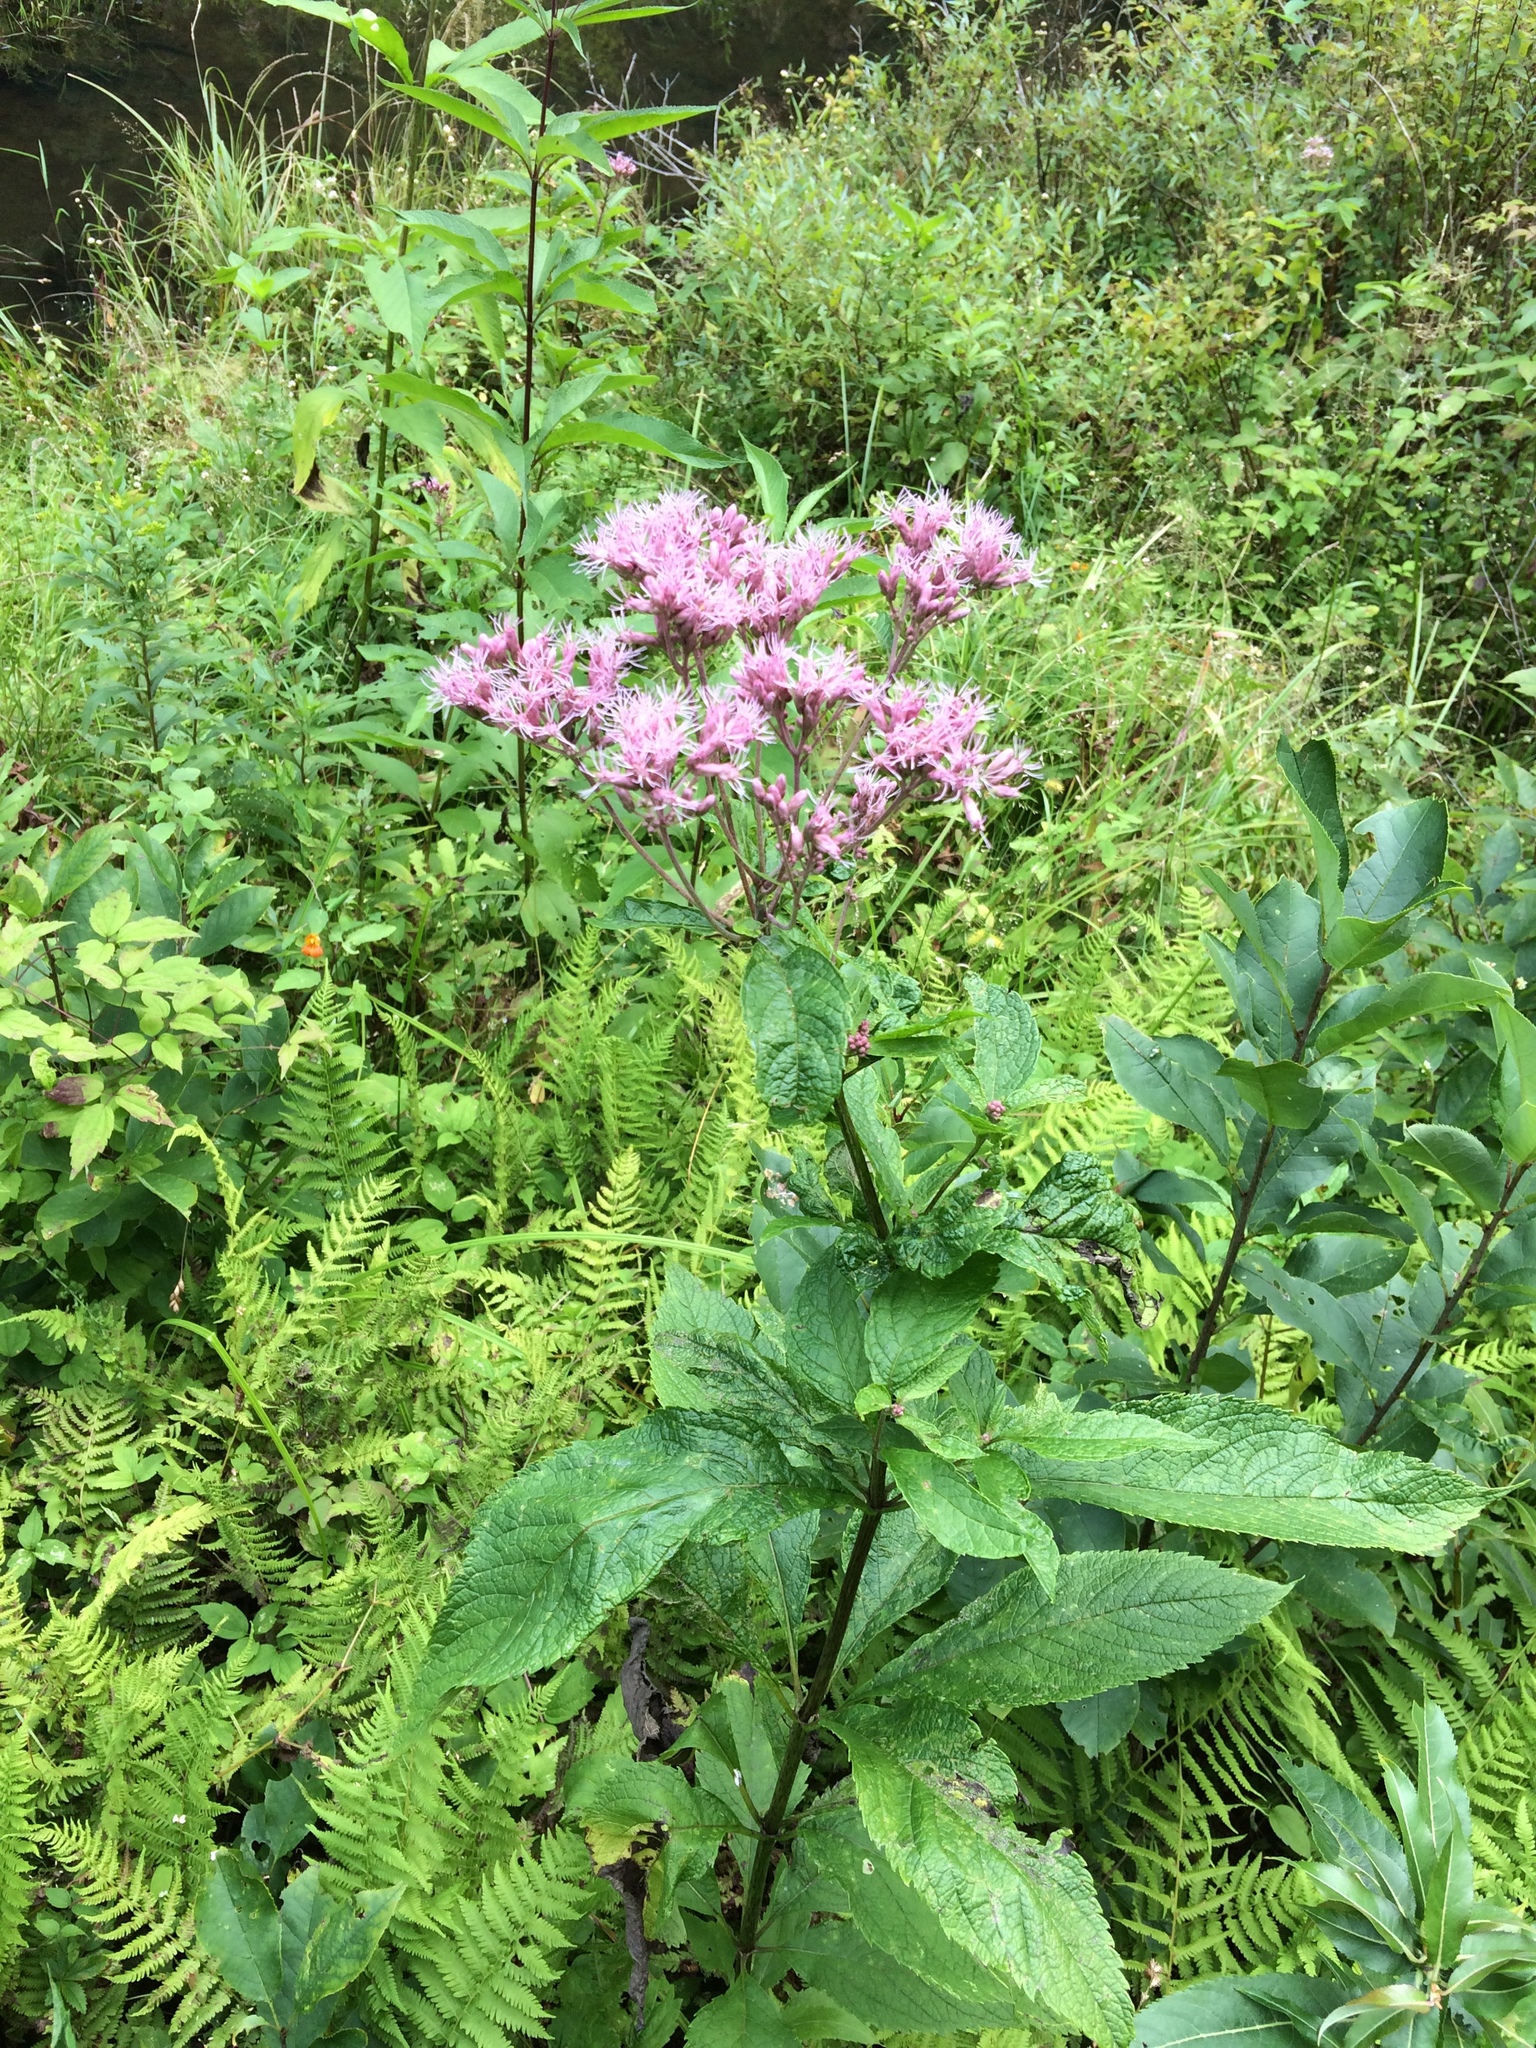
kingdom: Plantae
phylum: Tracheophyta
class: Magnoliopsida
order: Asterales
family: Asteraceae
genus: Eutrochium
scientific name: Eutrochium maculatum
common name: Spotted joe pye weed
